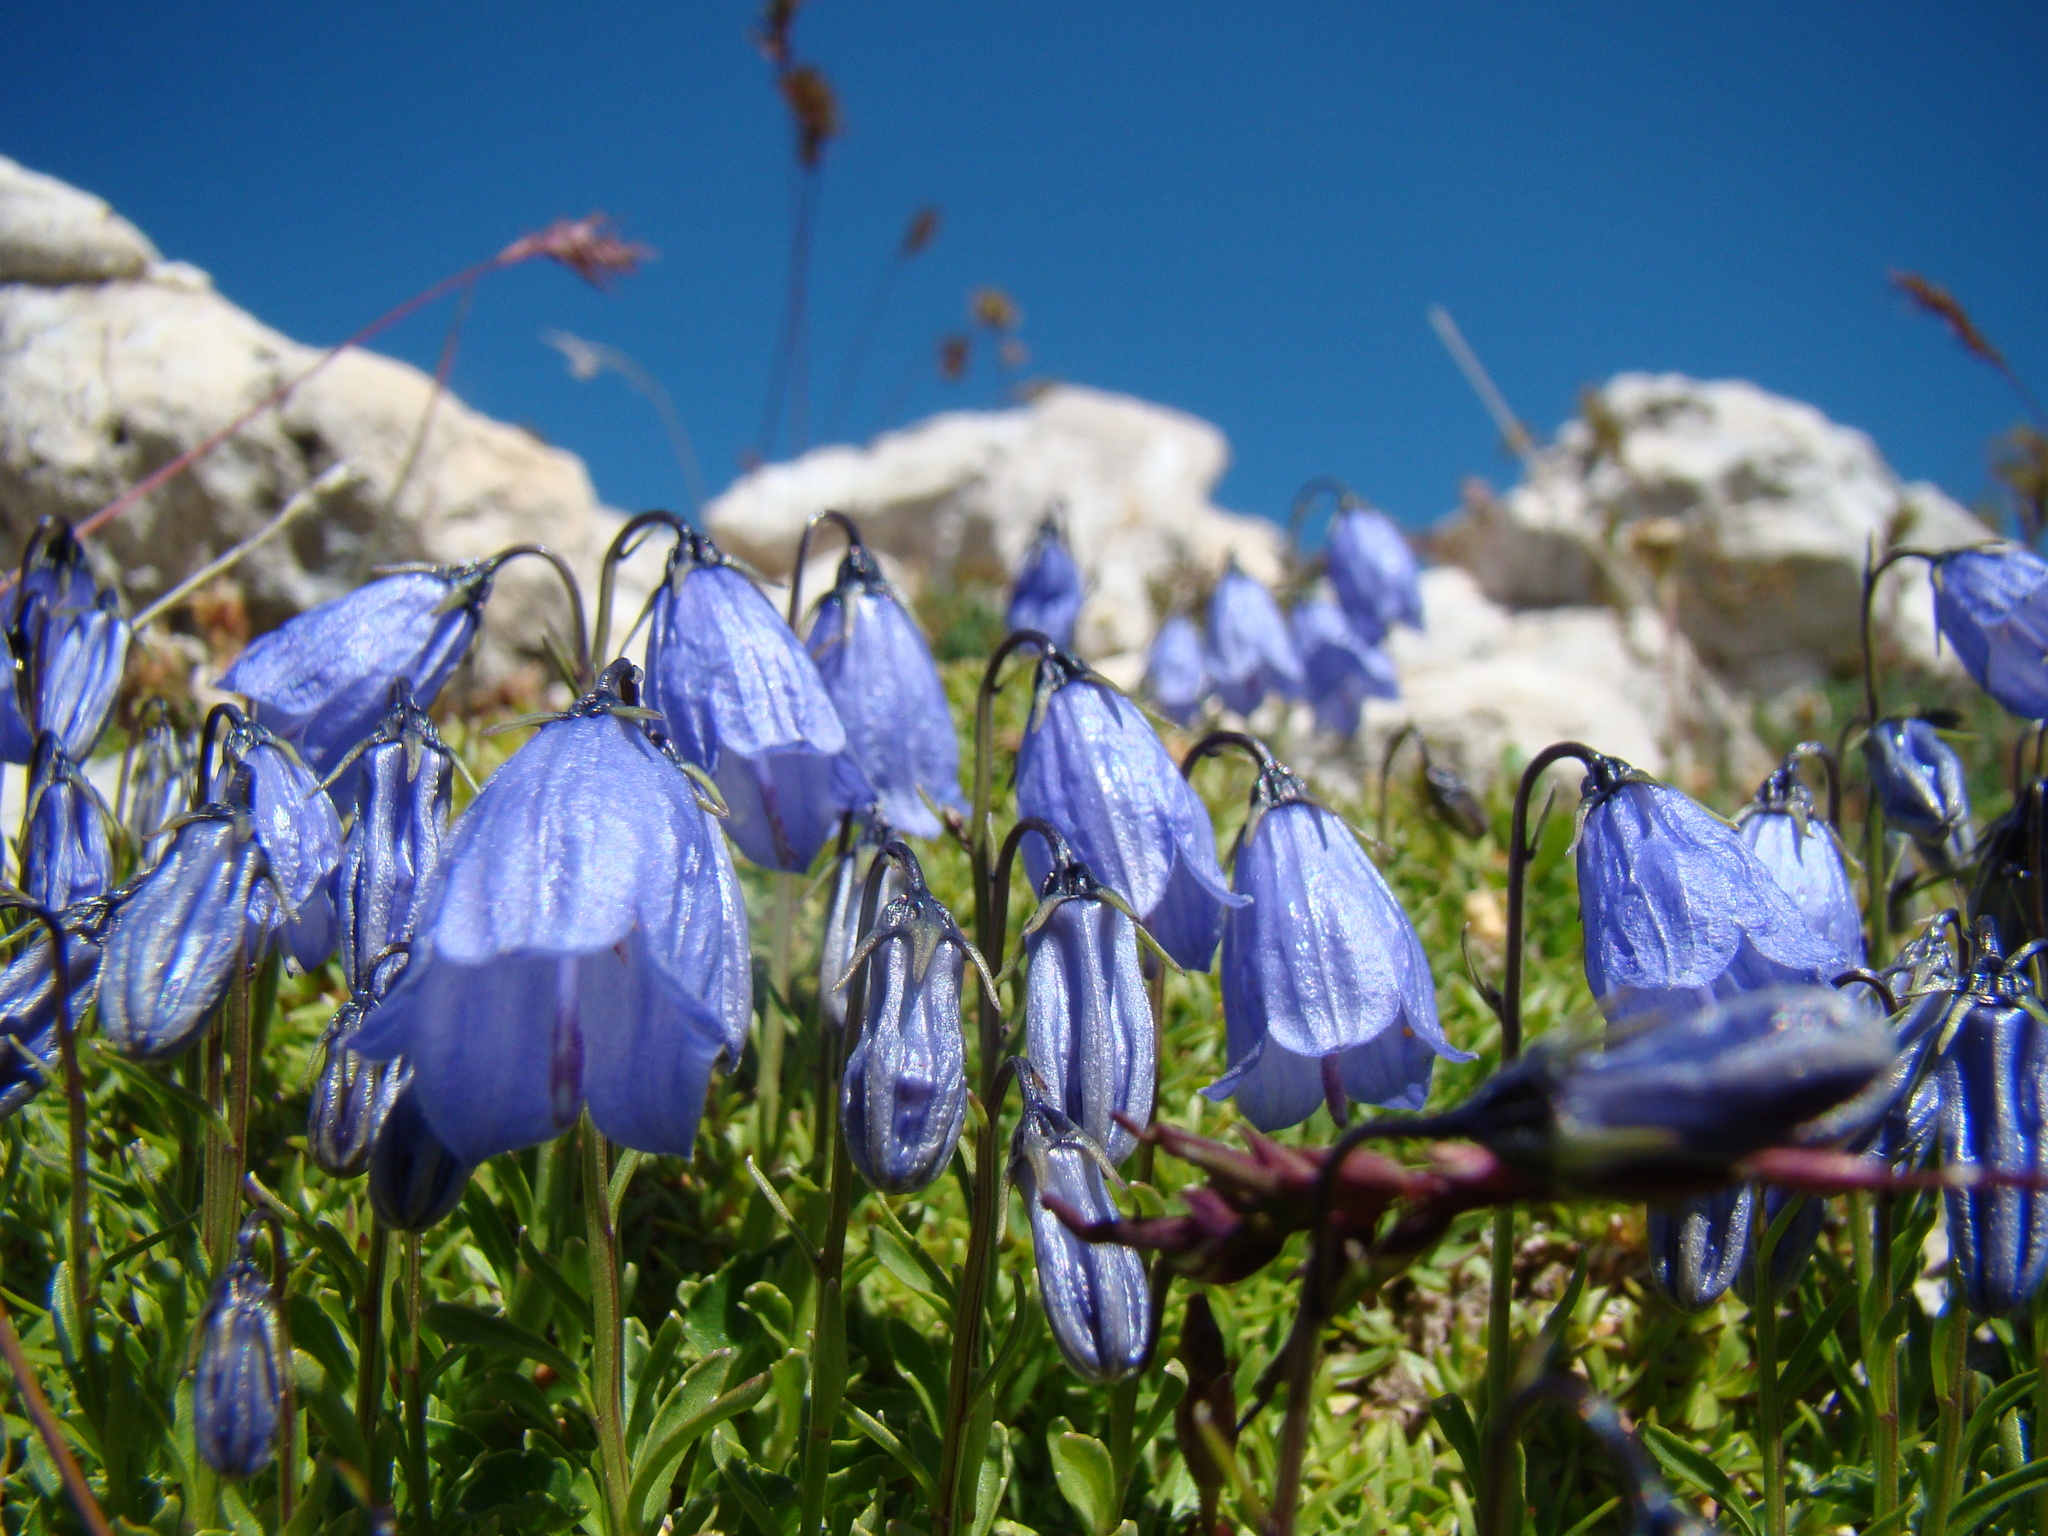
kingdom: Plantae
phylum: Tracheophyta
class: Magnoliopsida
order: Asterales
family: Campanulaceae
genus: Campanula
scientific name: Campanula cochleariifolia
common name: Fairies'-thimbles
